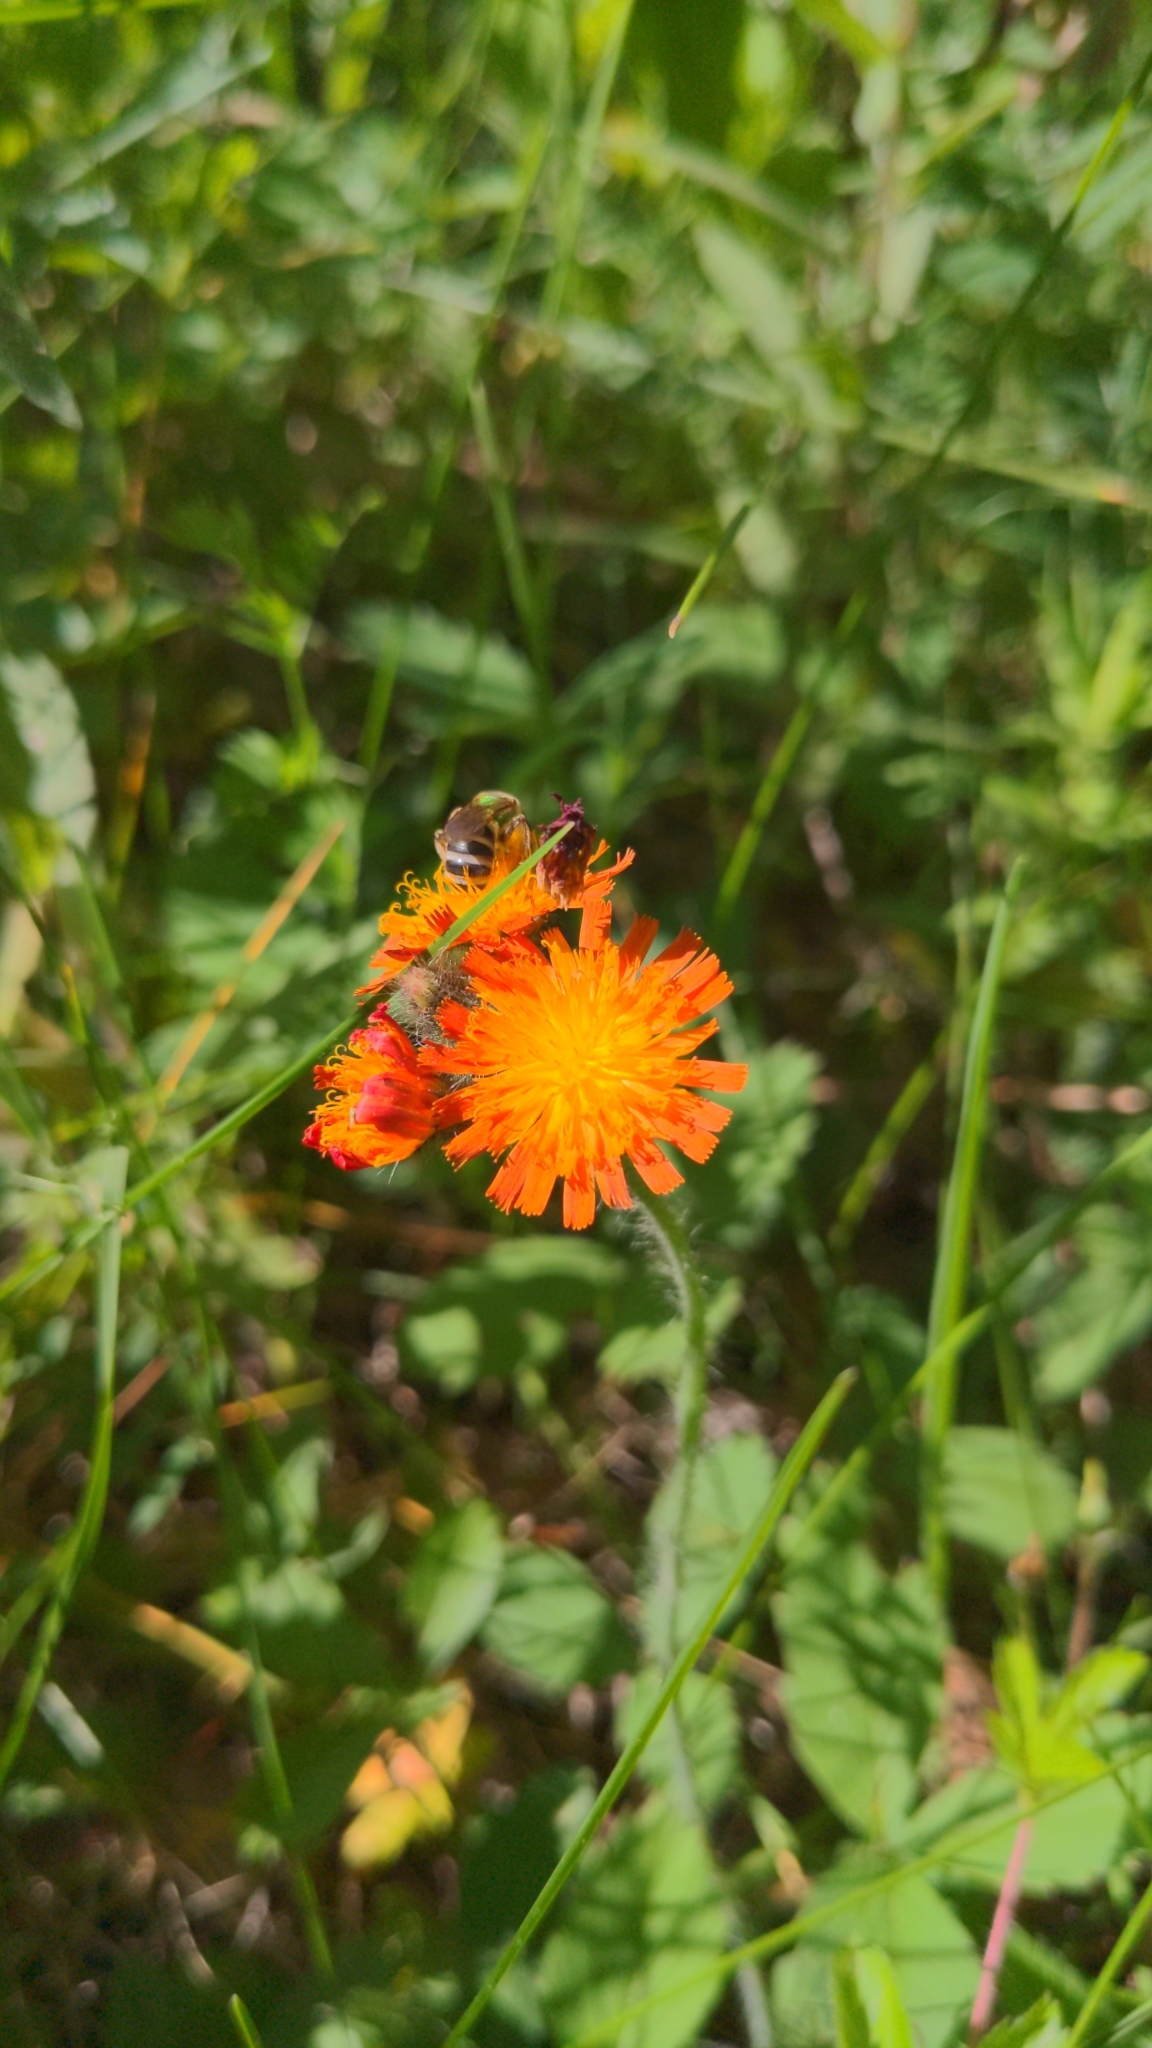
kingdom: Plantae
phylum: Tracheophyta
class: Magnoliopsida
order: Asterales
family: Asteraceae
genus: Pilosella
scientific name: Pilosella aurantiaca
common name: Fox-and-cubs
